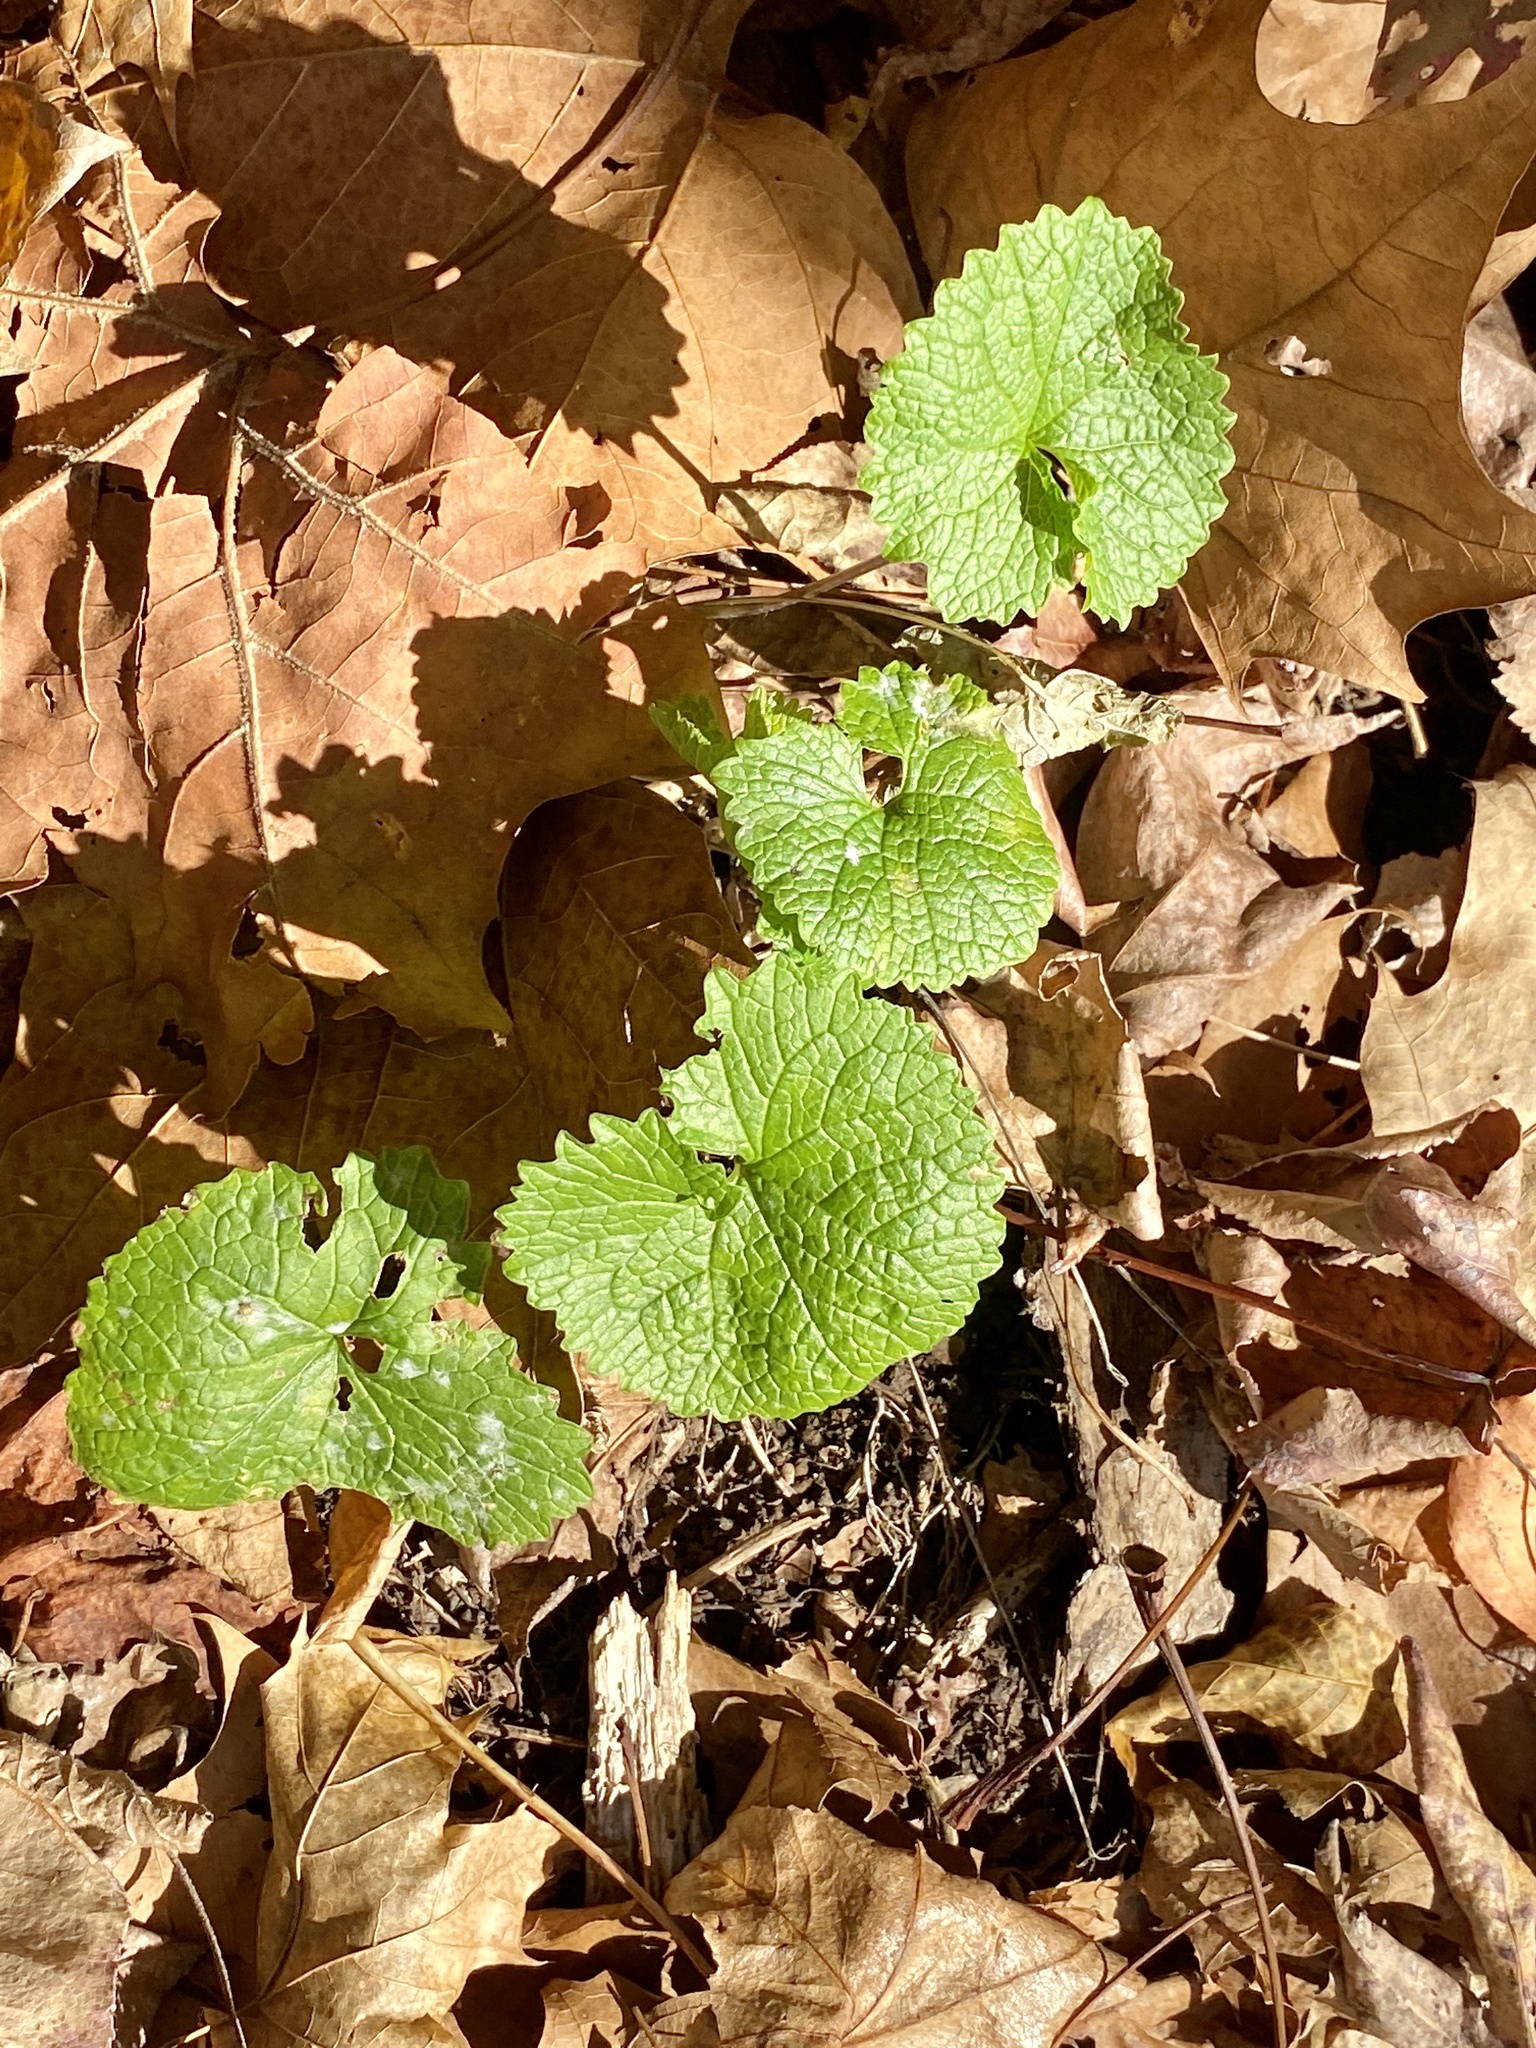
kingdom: Plantae
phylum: Tracheophyta
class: Magnoliopsida
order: Brassicales
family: Brassicaceae
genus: Alliaria
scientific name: Alliaria petiolata
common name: Garlic mustard
